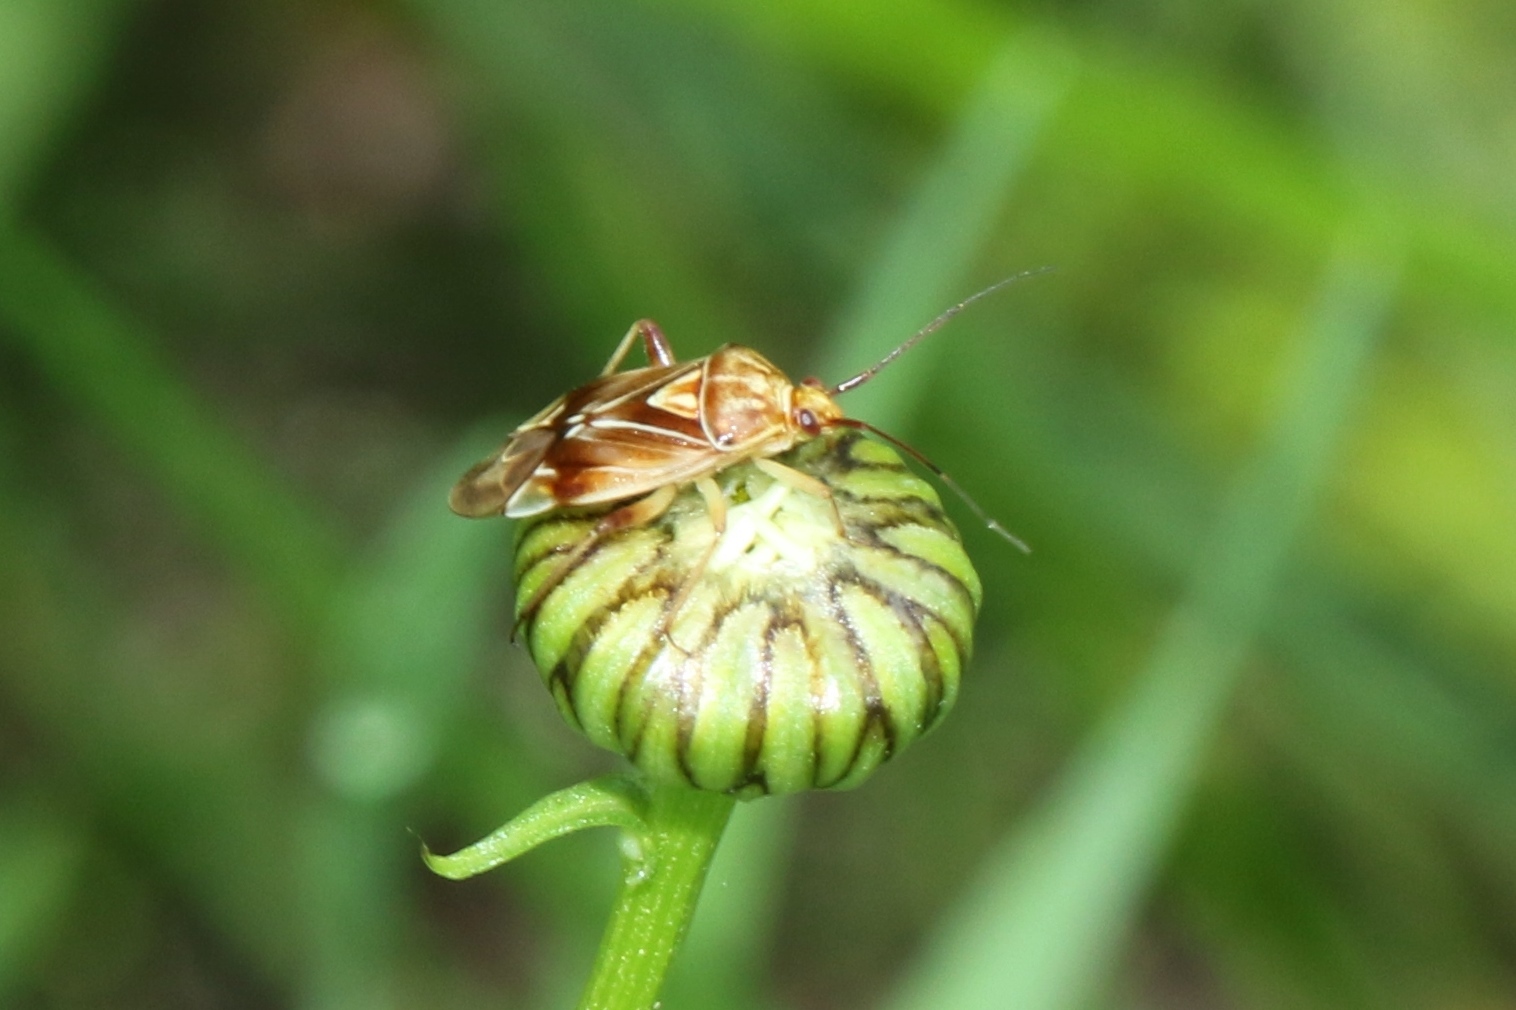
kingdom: Animalia
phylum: Arthropoda
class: Insecta
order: Hemiptera
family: Miridae
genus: Lygus
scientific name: Lygus vanduzeei
